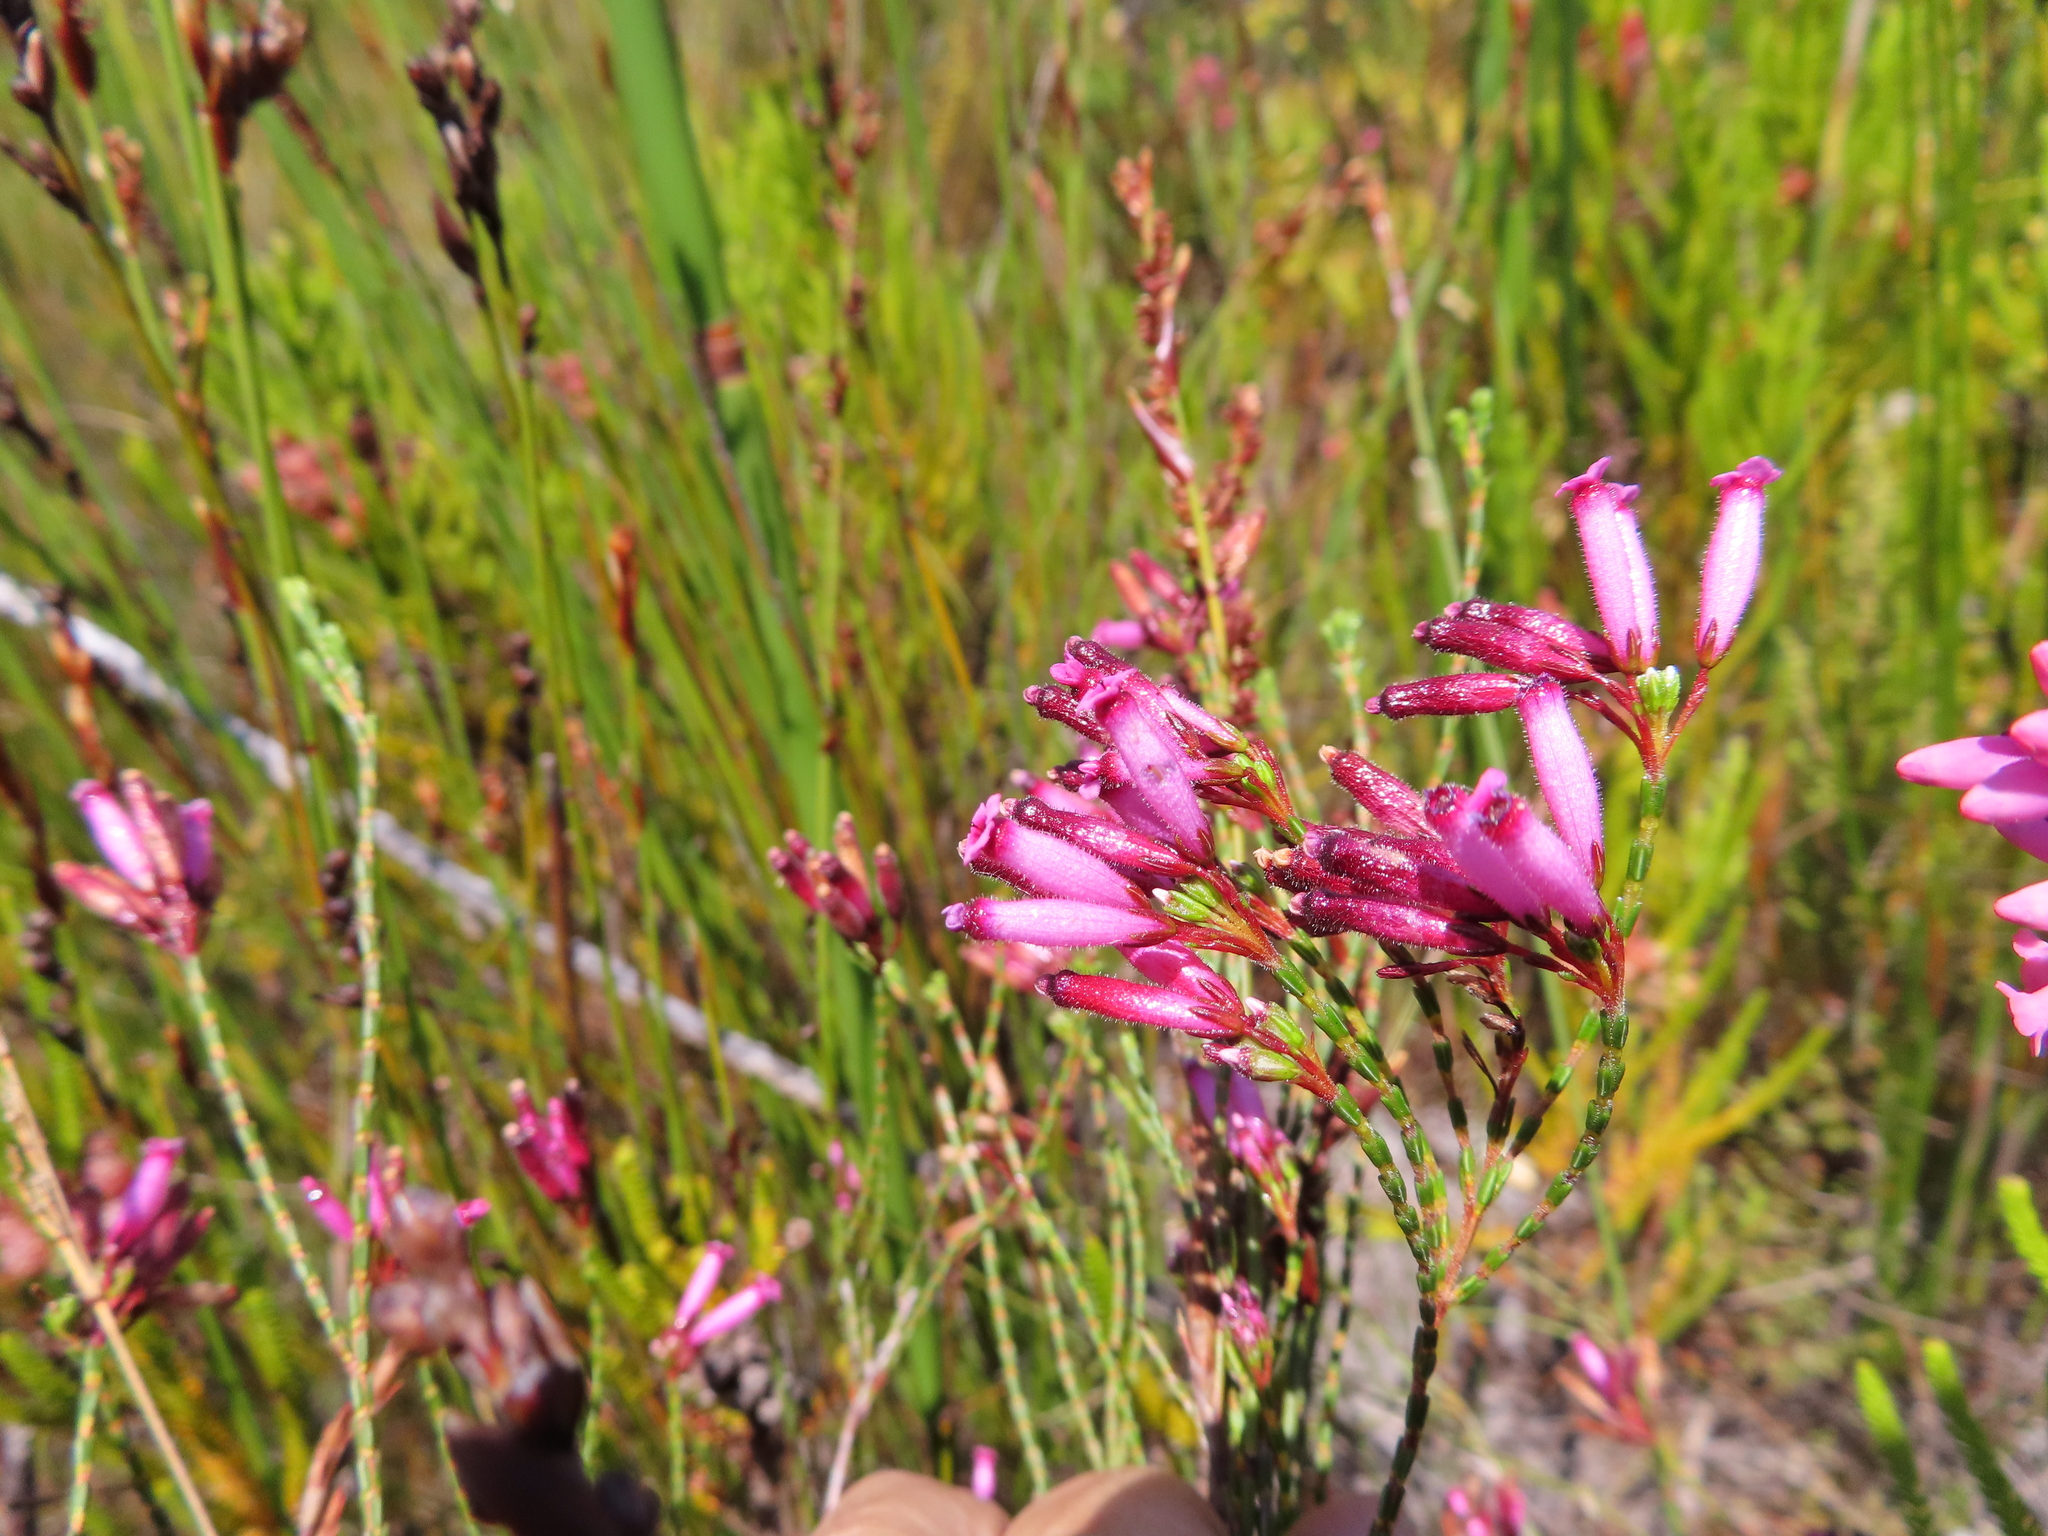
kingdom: Plantae
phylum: Tracheophyta
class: Magnoliopsida
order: Ericales
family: Ericaceae
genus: Erica
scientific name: Erica cristata
